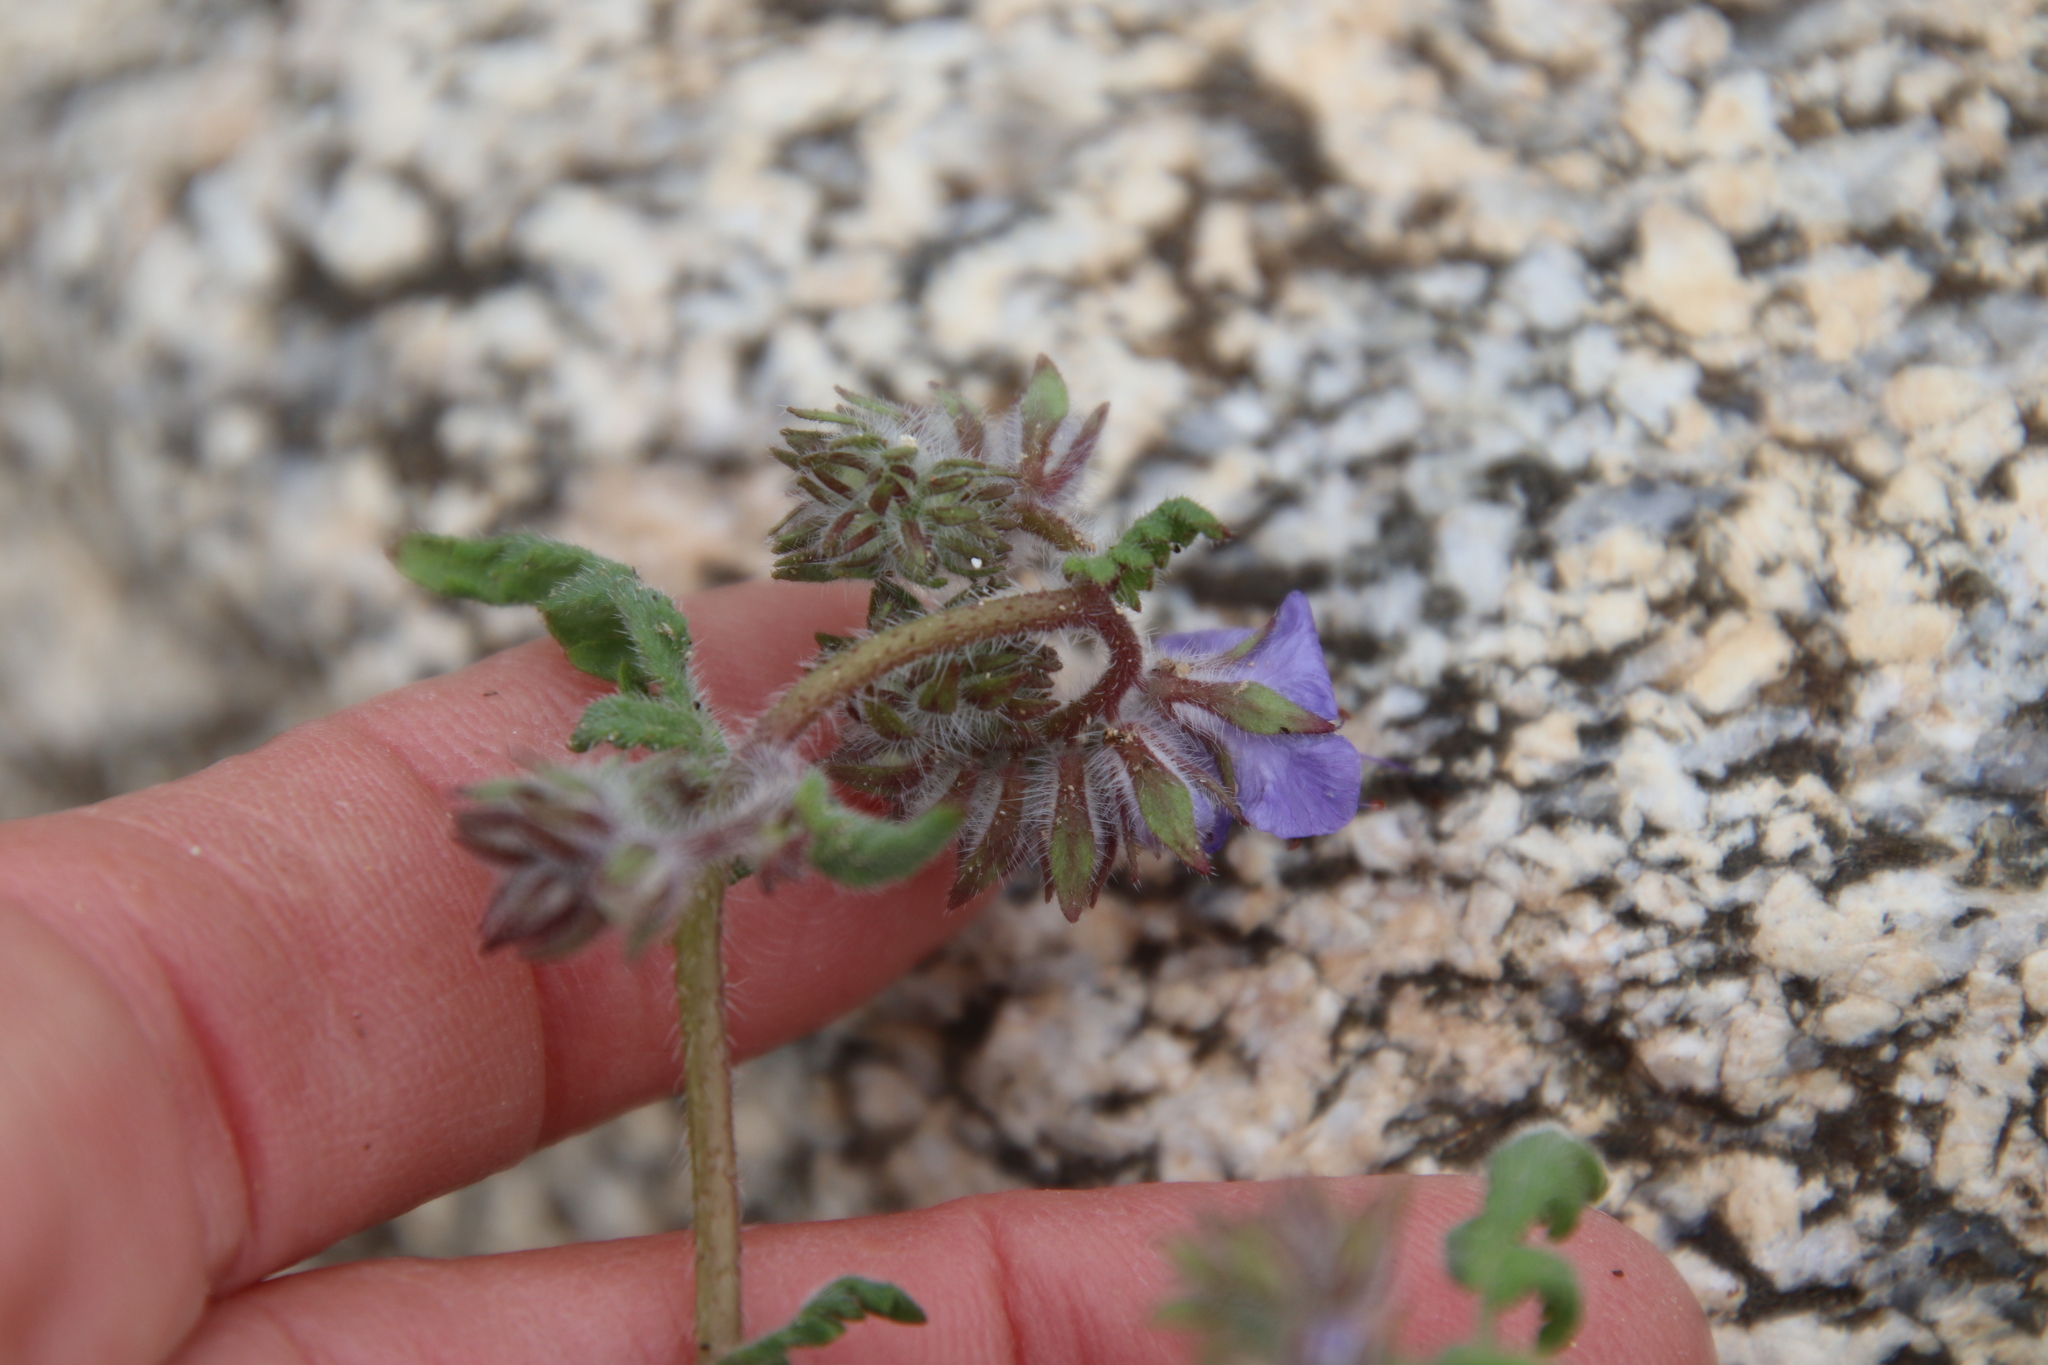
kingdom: Plantae
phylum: Tracheophyta
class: Magnoliopsida
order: Boraginales
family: Hydrophyllaceae
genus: Phacelia
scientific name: Phacelia distans
